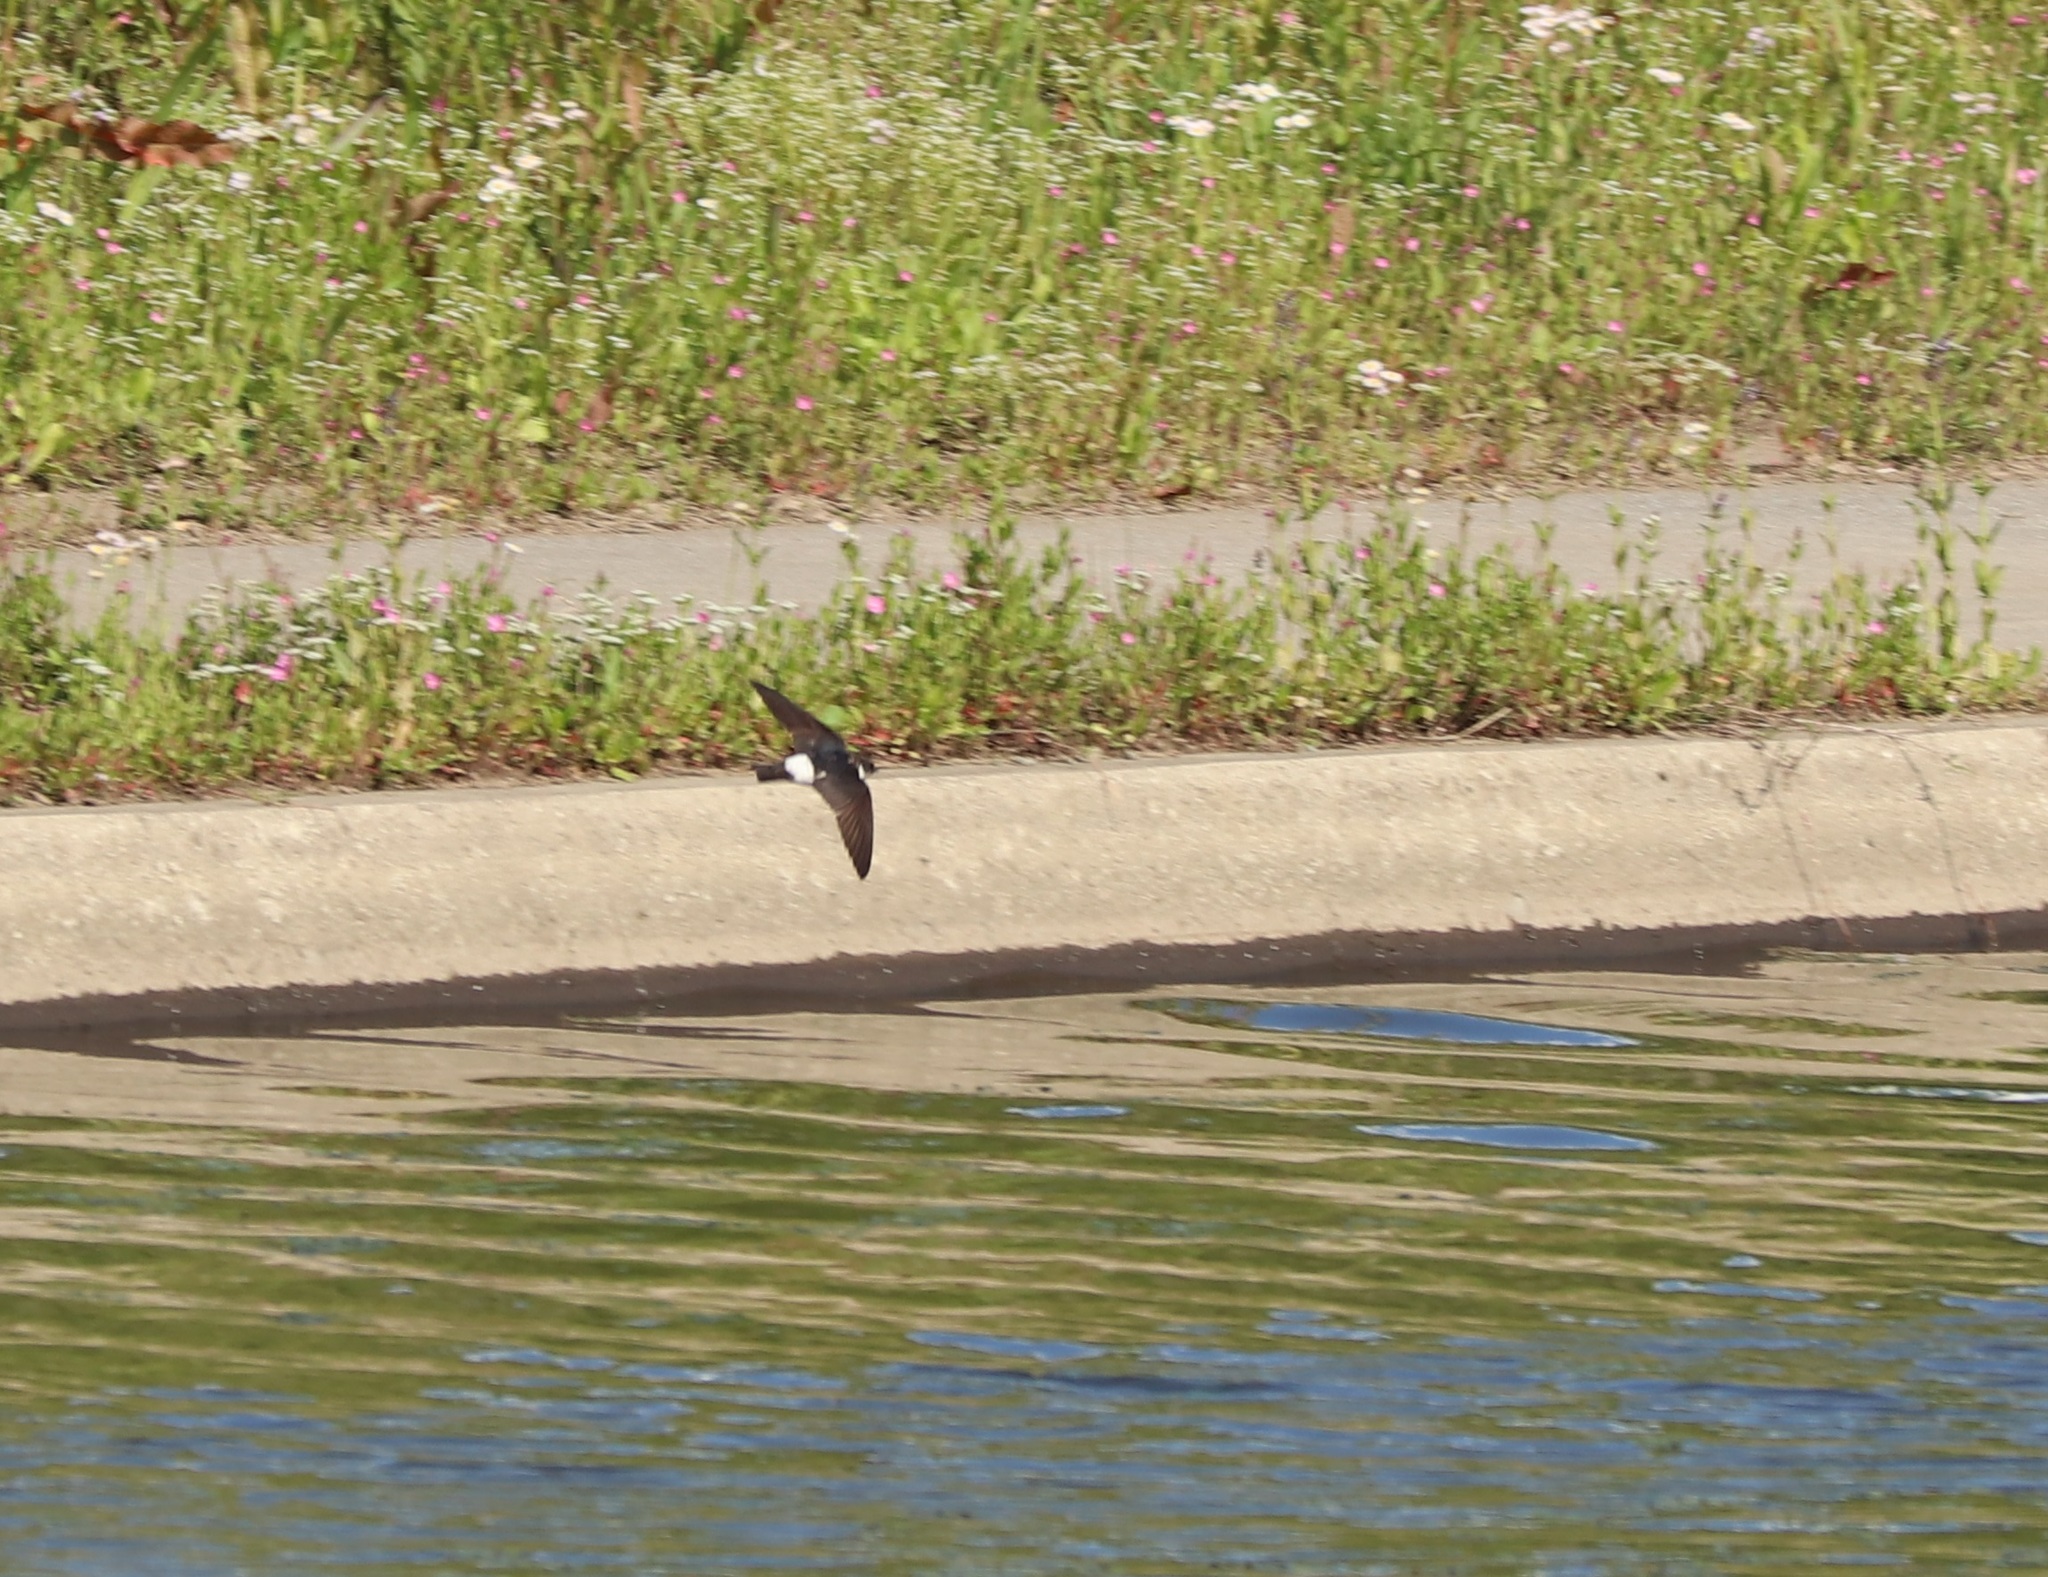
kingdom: Animalia
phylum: Chordata
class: Aves
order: Passeriformes
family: Hirundinidae
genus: Delichon
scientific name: Delichon dasypus
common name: Asian house martin
